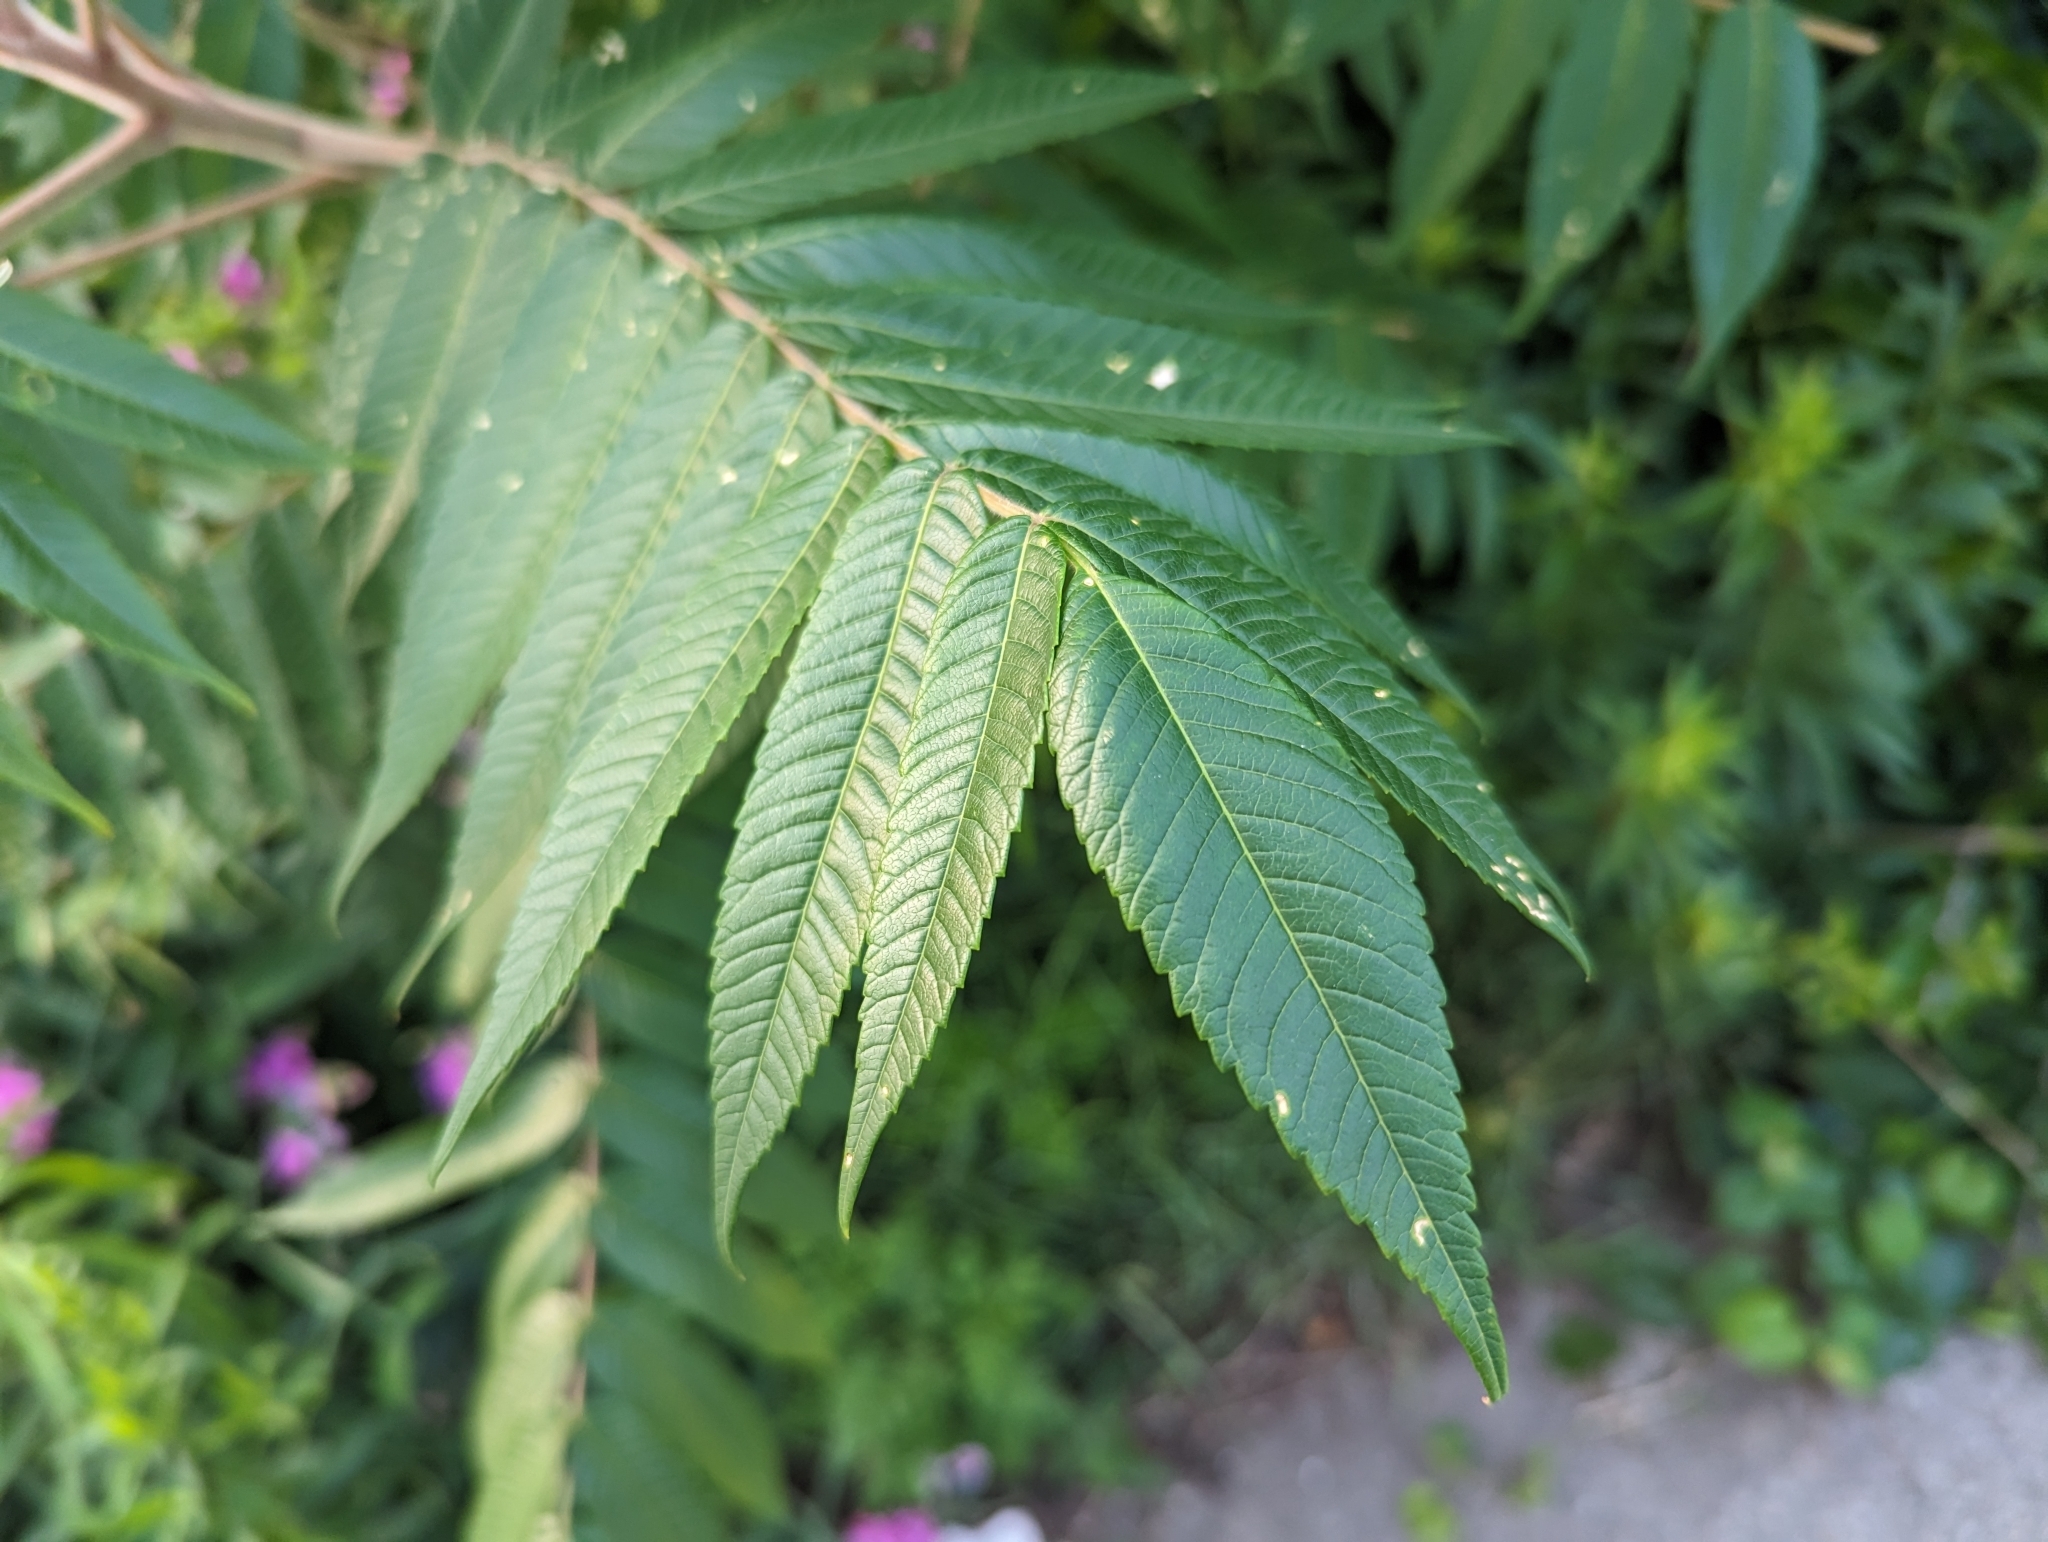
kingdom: Plantae
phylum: Tracheophyta
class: Magnoliopsida
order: Sapindales
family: Anacardiaceae
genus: Rhus
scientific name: Rhus typhina
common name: Staghorn sumac
